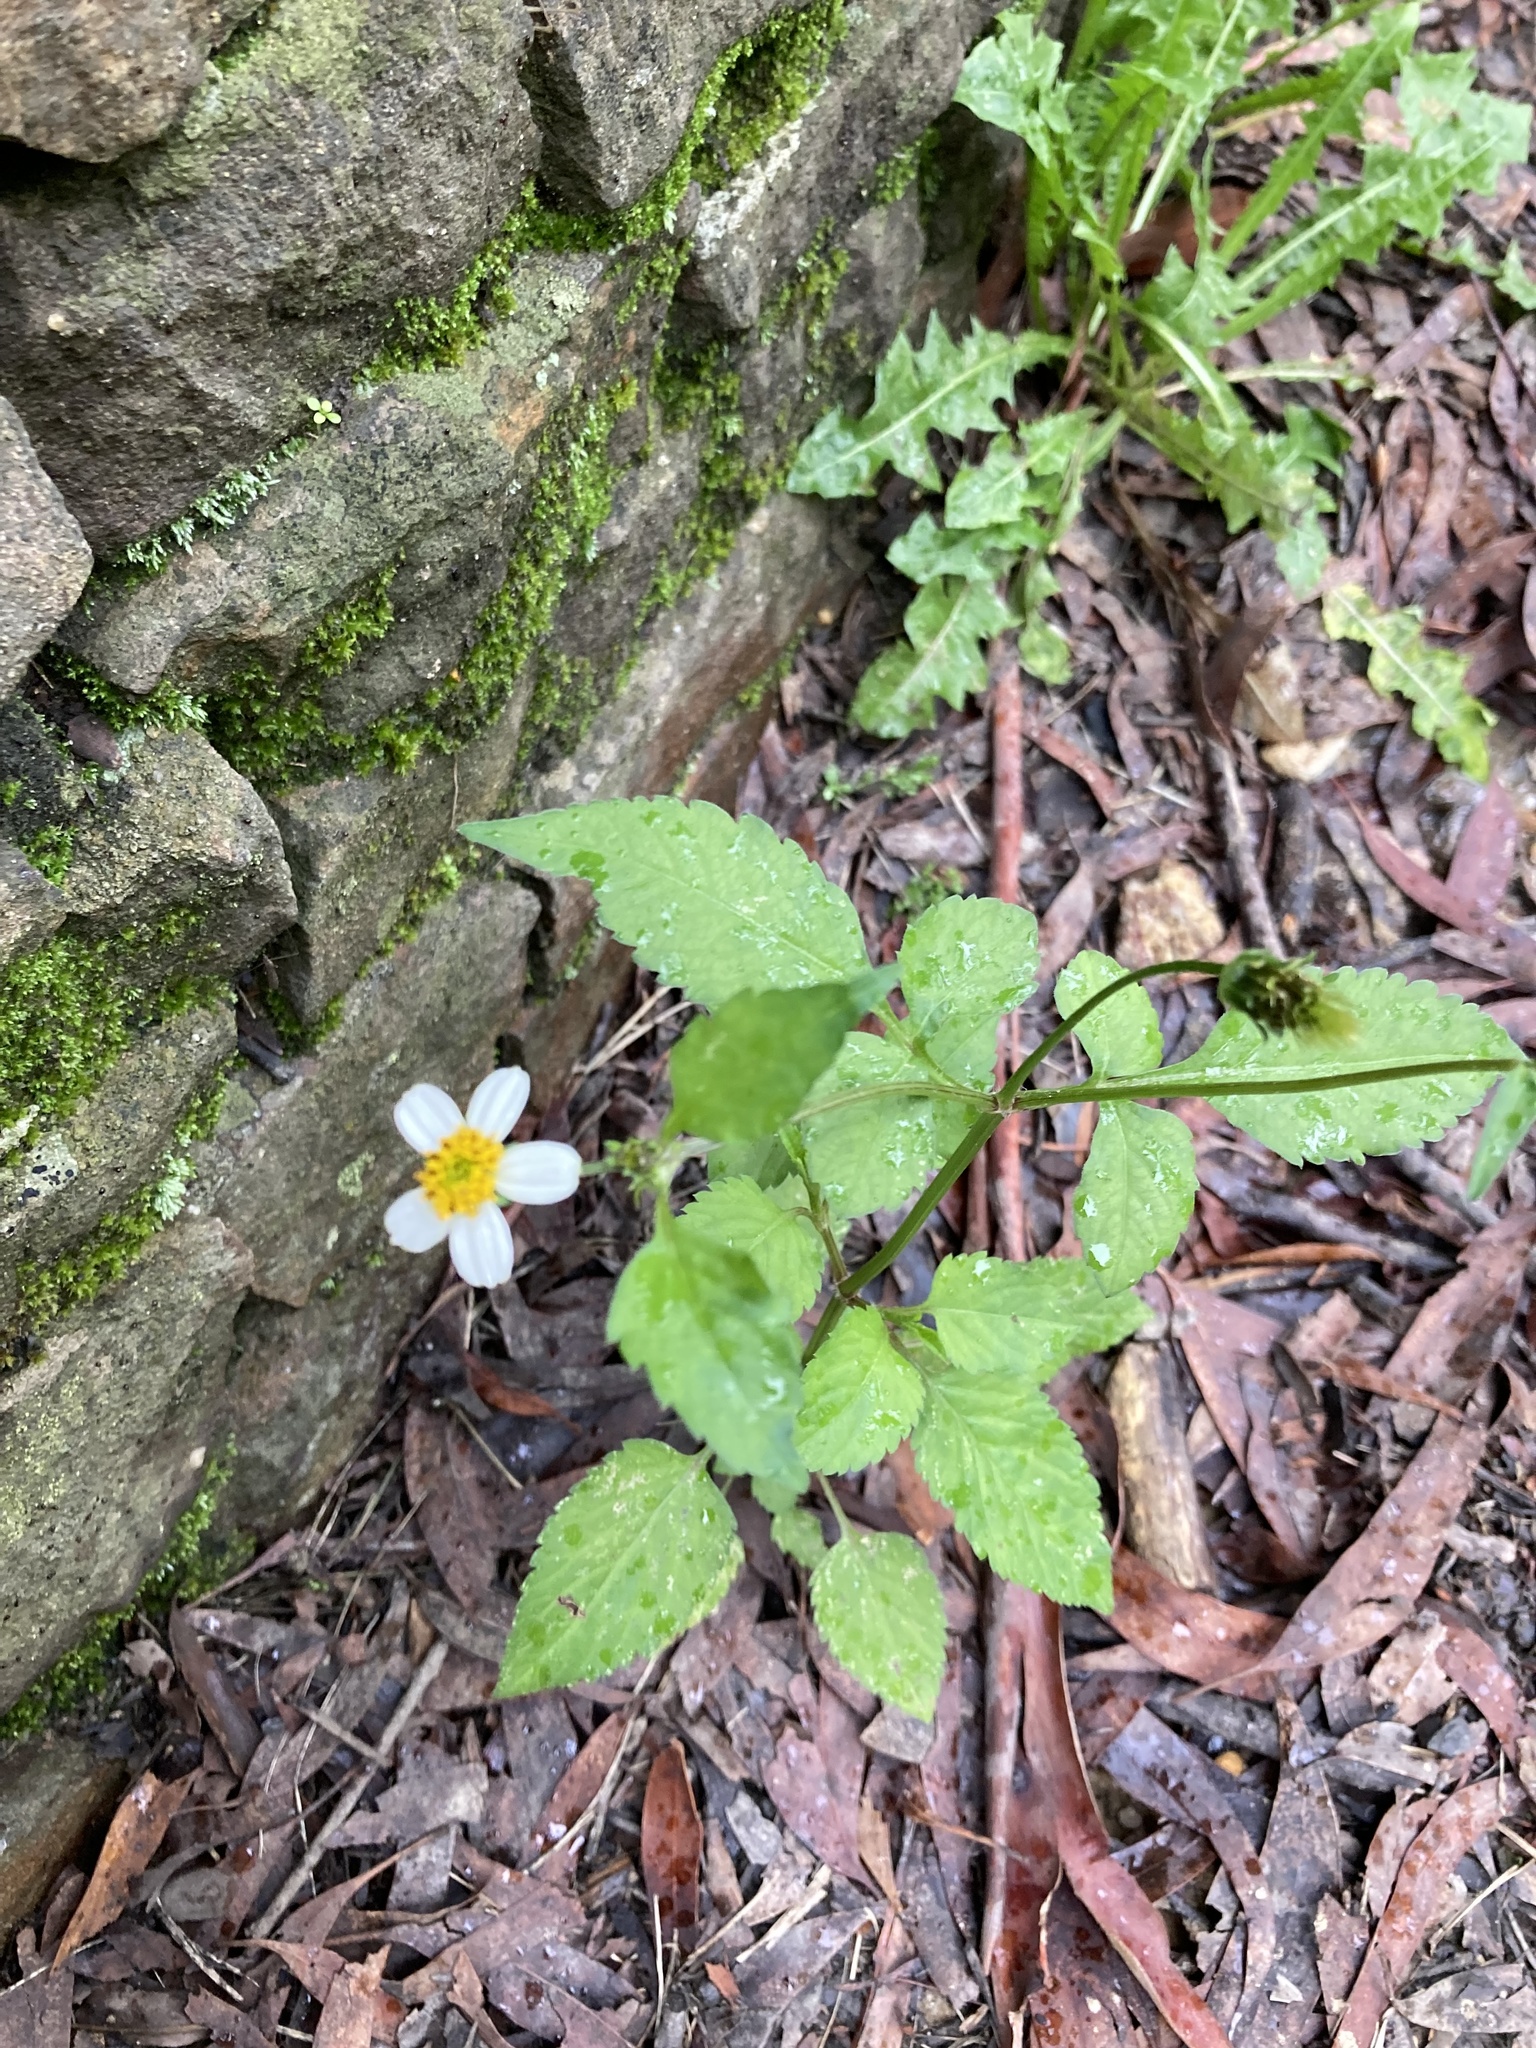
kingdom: Plantae
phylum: Tracheophyta
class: Magnoliopsida
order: Asterales
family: Asteraceae
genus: Bidens
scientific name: Bidens alba
